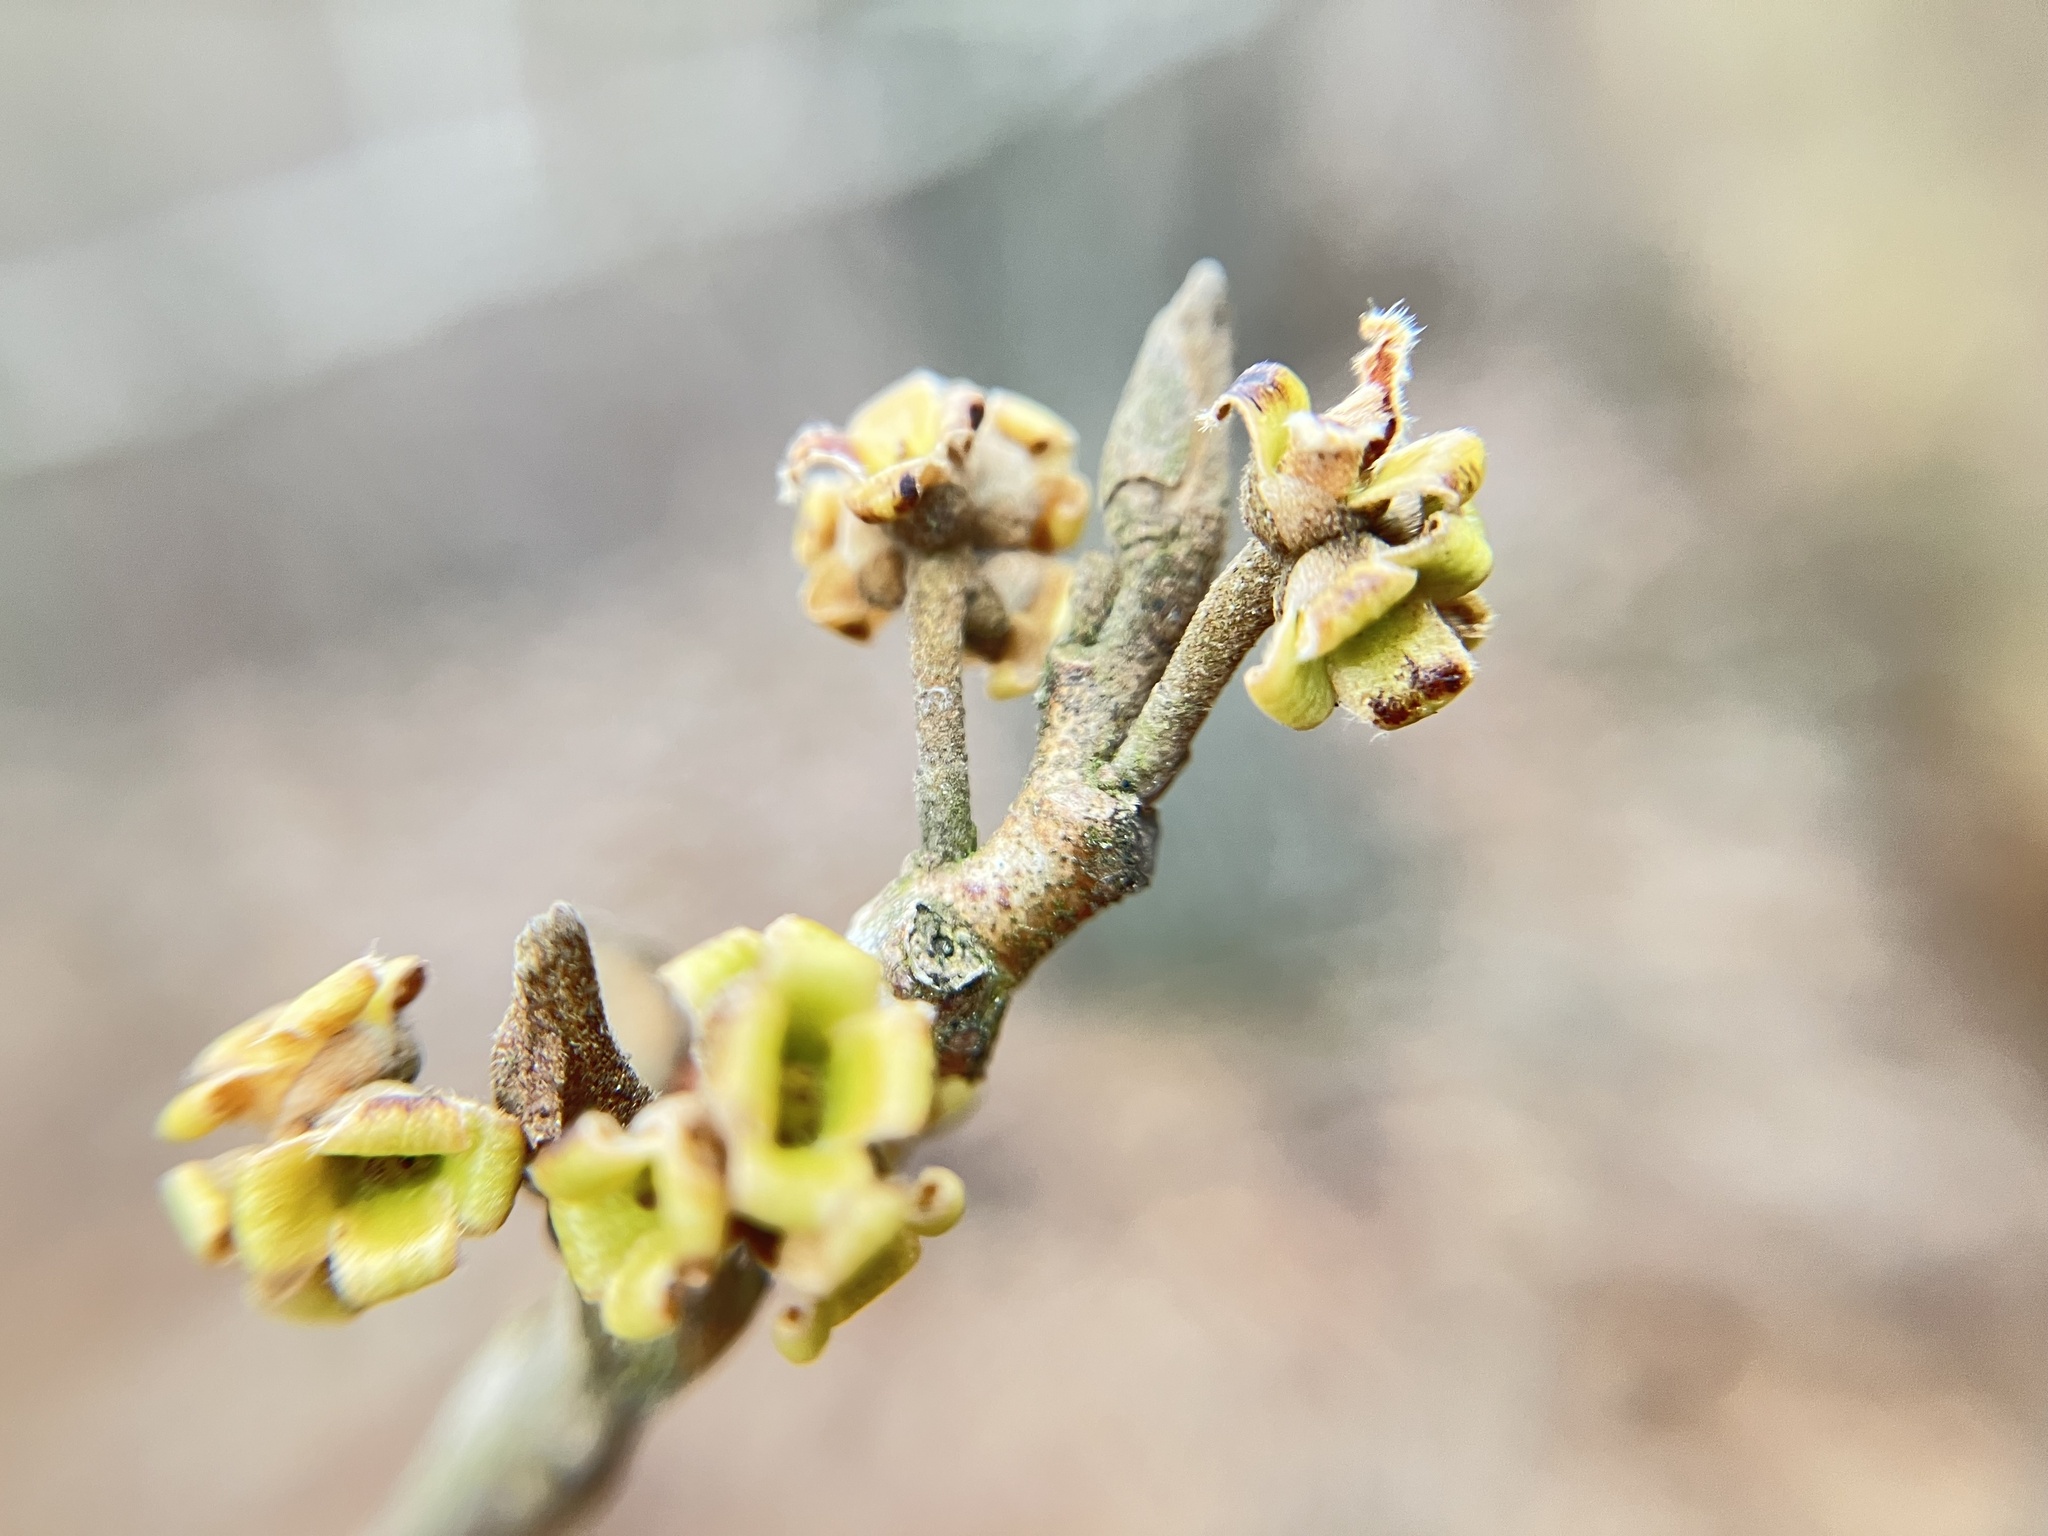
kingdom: Plantae
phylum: Tracheophyta
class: Magnoliopsida
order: Saxifragales
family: Hamamelidaceae
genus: Hamamelis
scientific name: Hamamelis virginiana
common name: Witch-hazel
